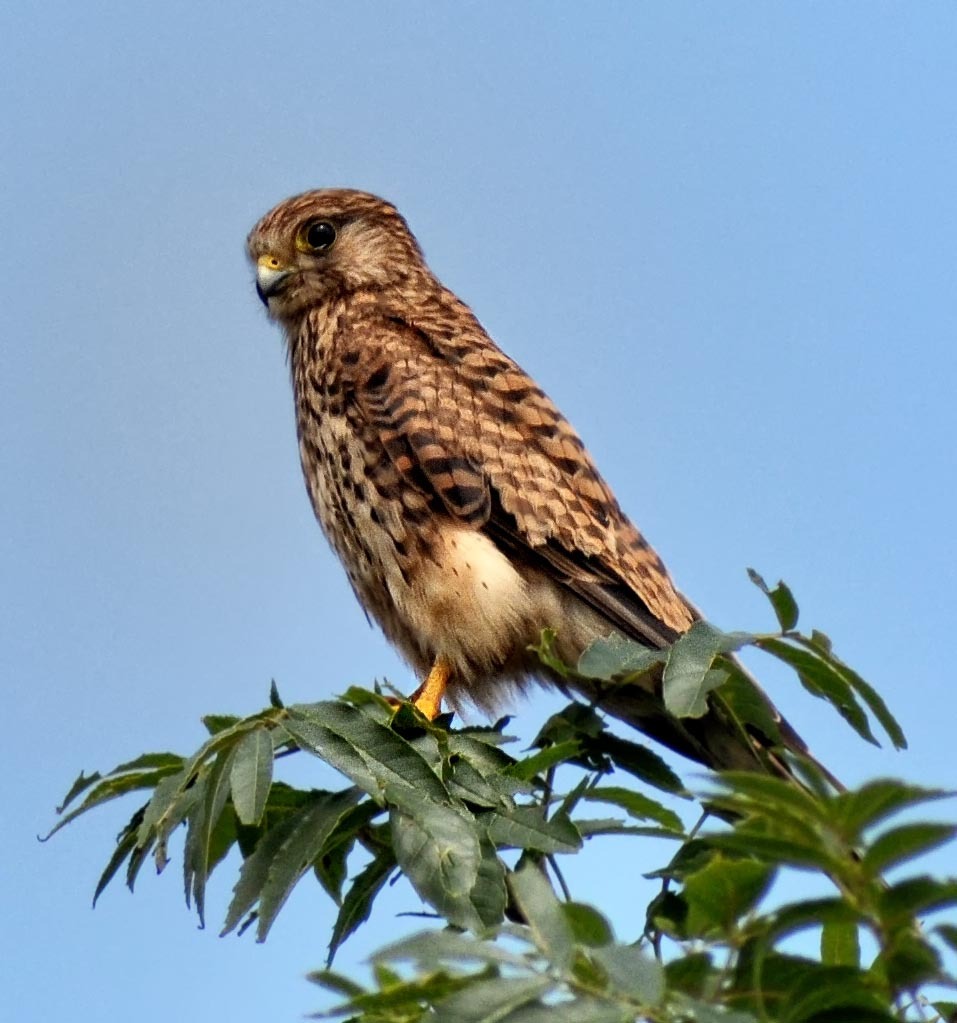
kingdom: Animalia
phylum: Chordata
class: Aves
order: Falconiformes
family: Falconidae
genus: Falco
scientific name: Falco tinnunculus
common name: Common kestrel
